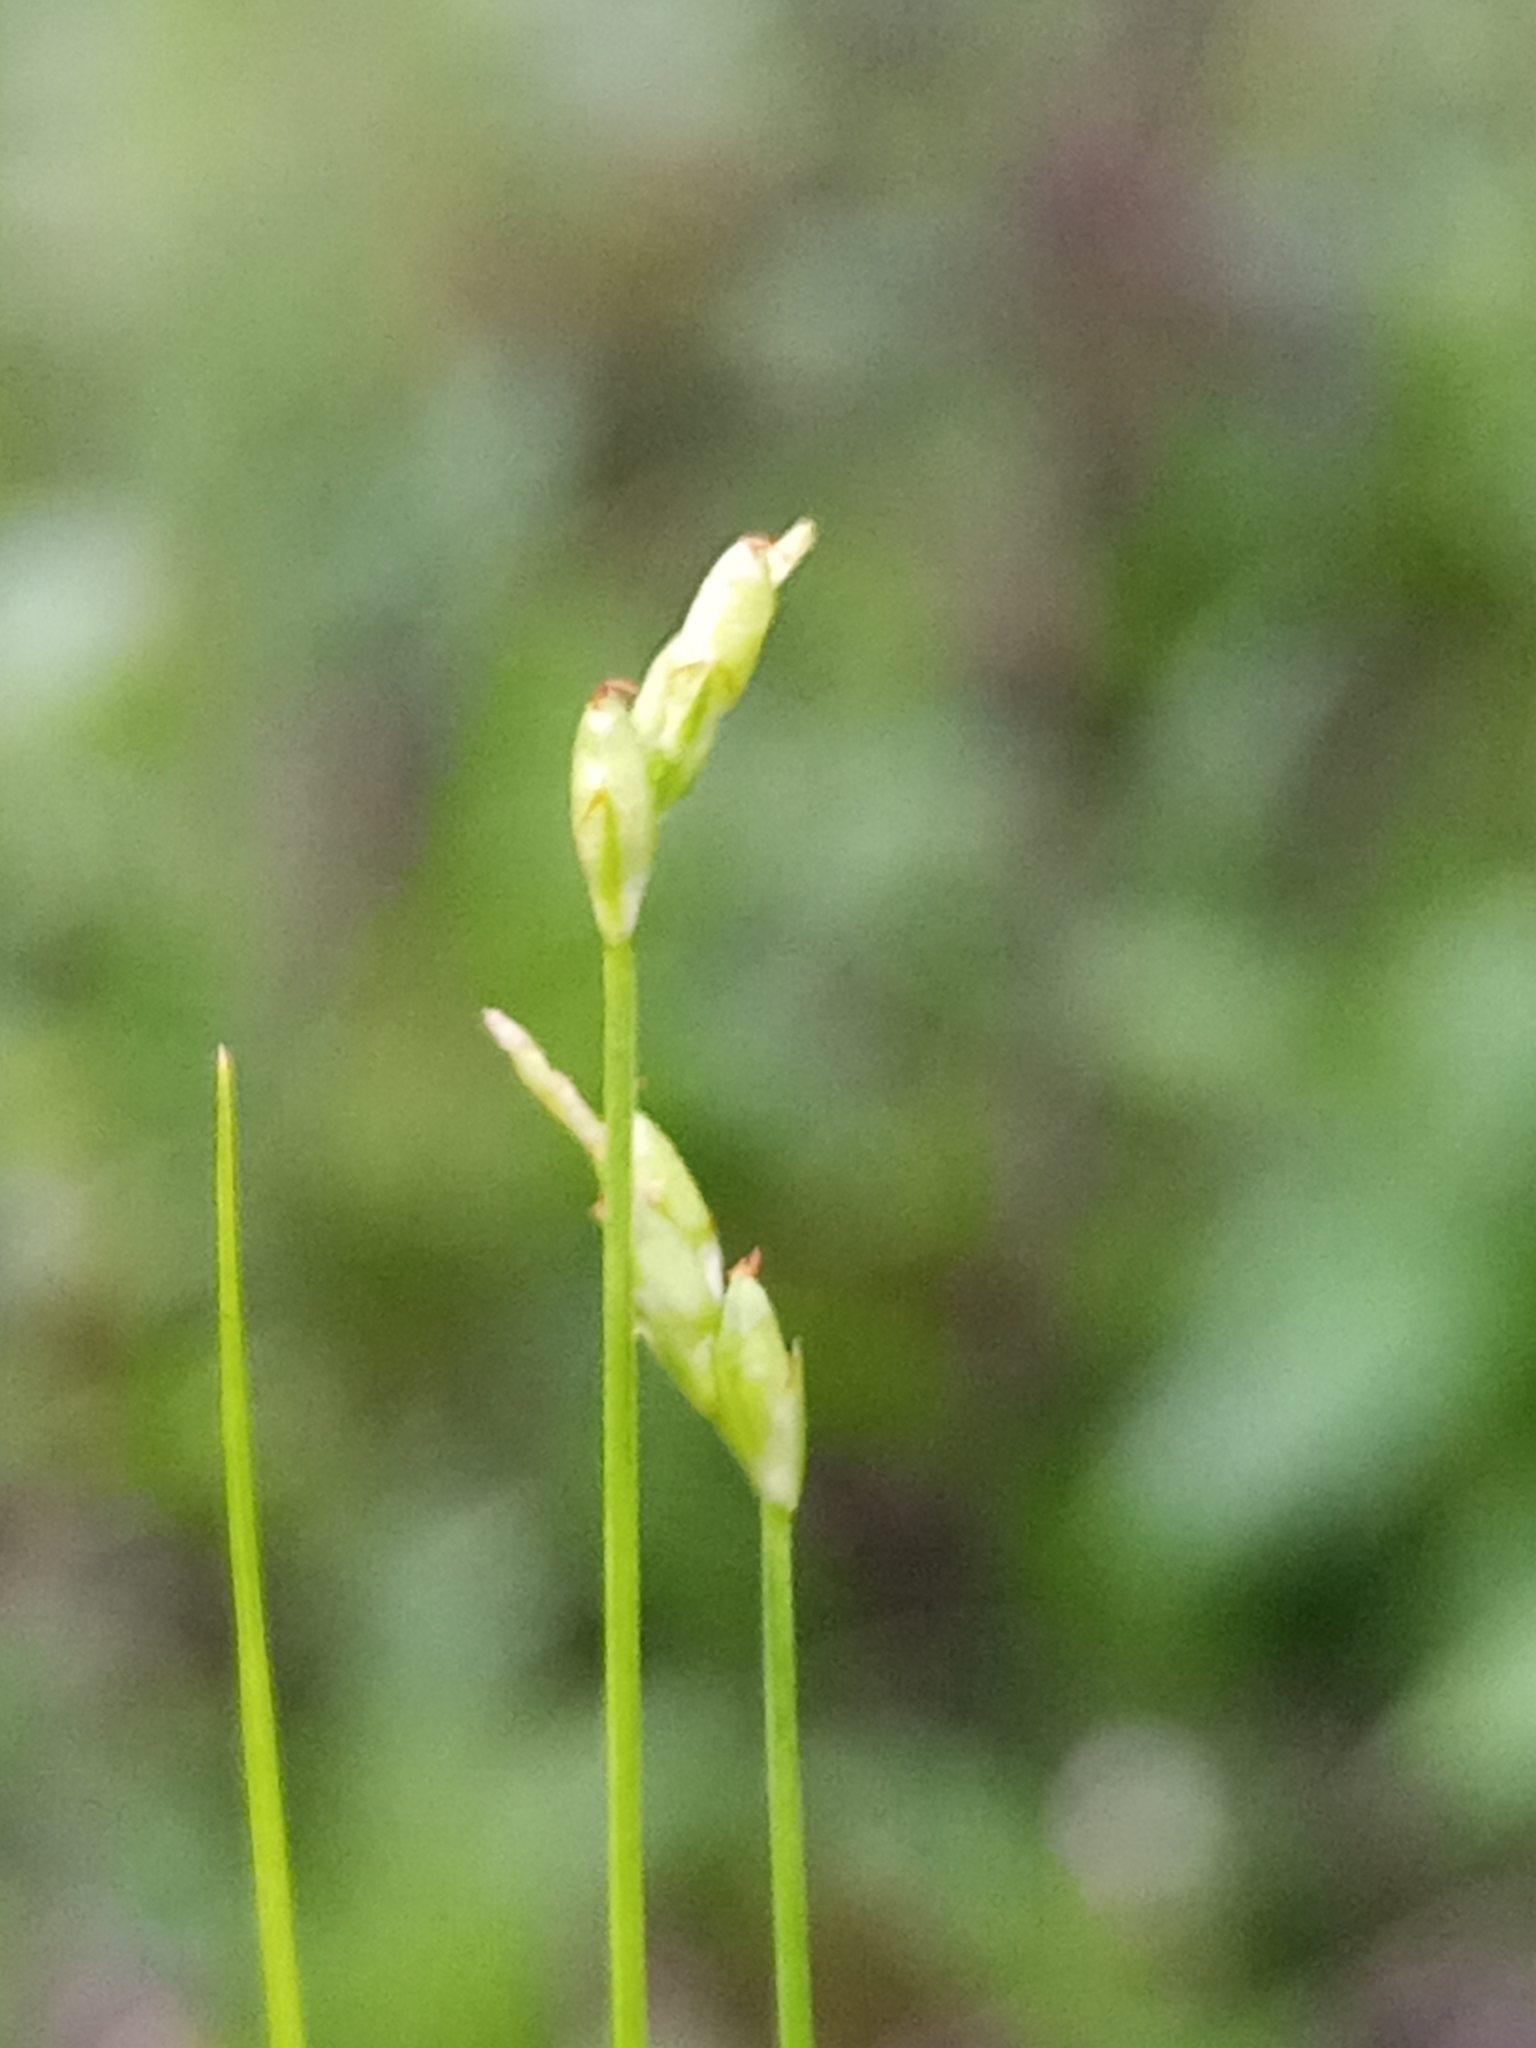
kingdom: Plantae
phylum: Tracheophyta
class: Liliopsida
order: Poales
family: Cyperaceae
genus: Carex
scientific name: Carex leptalea
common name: Bristly-stalked sedge
